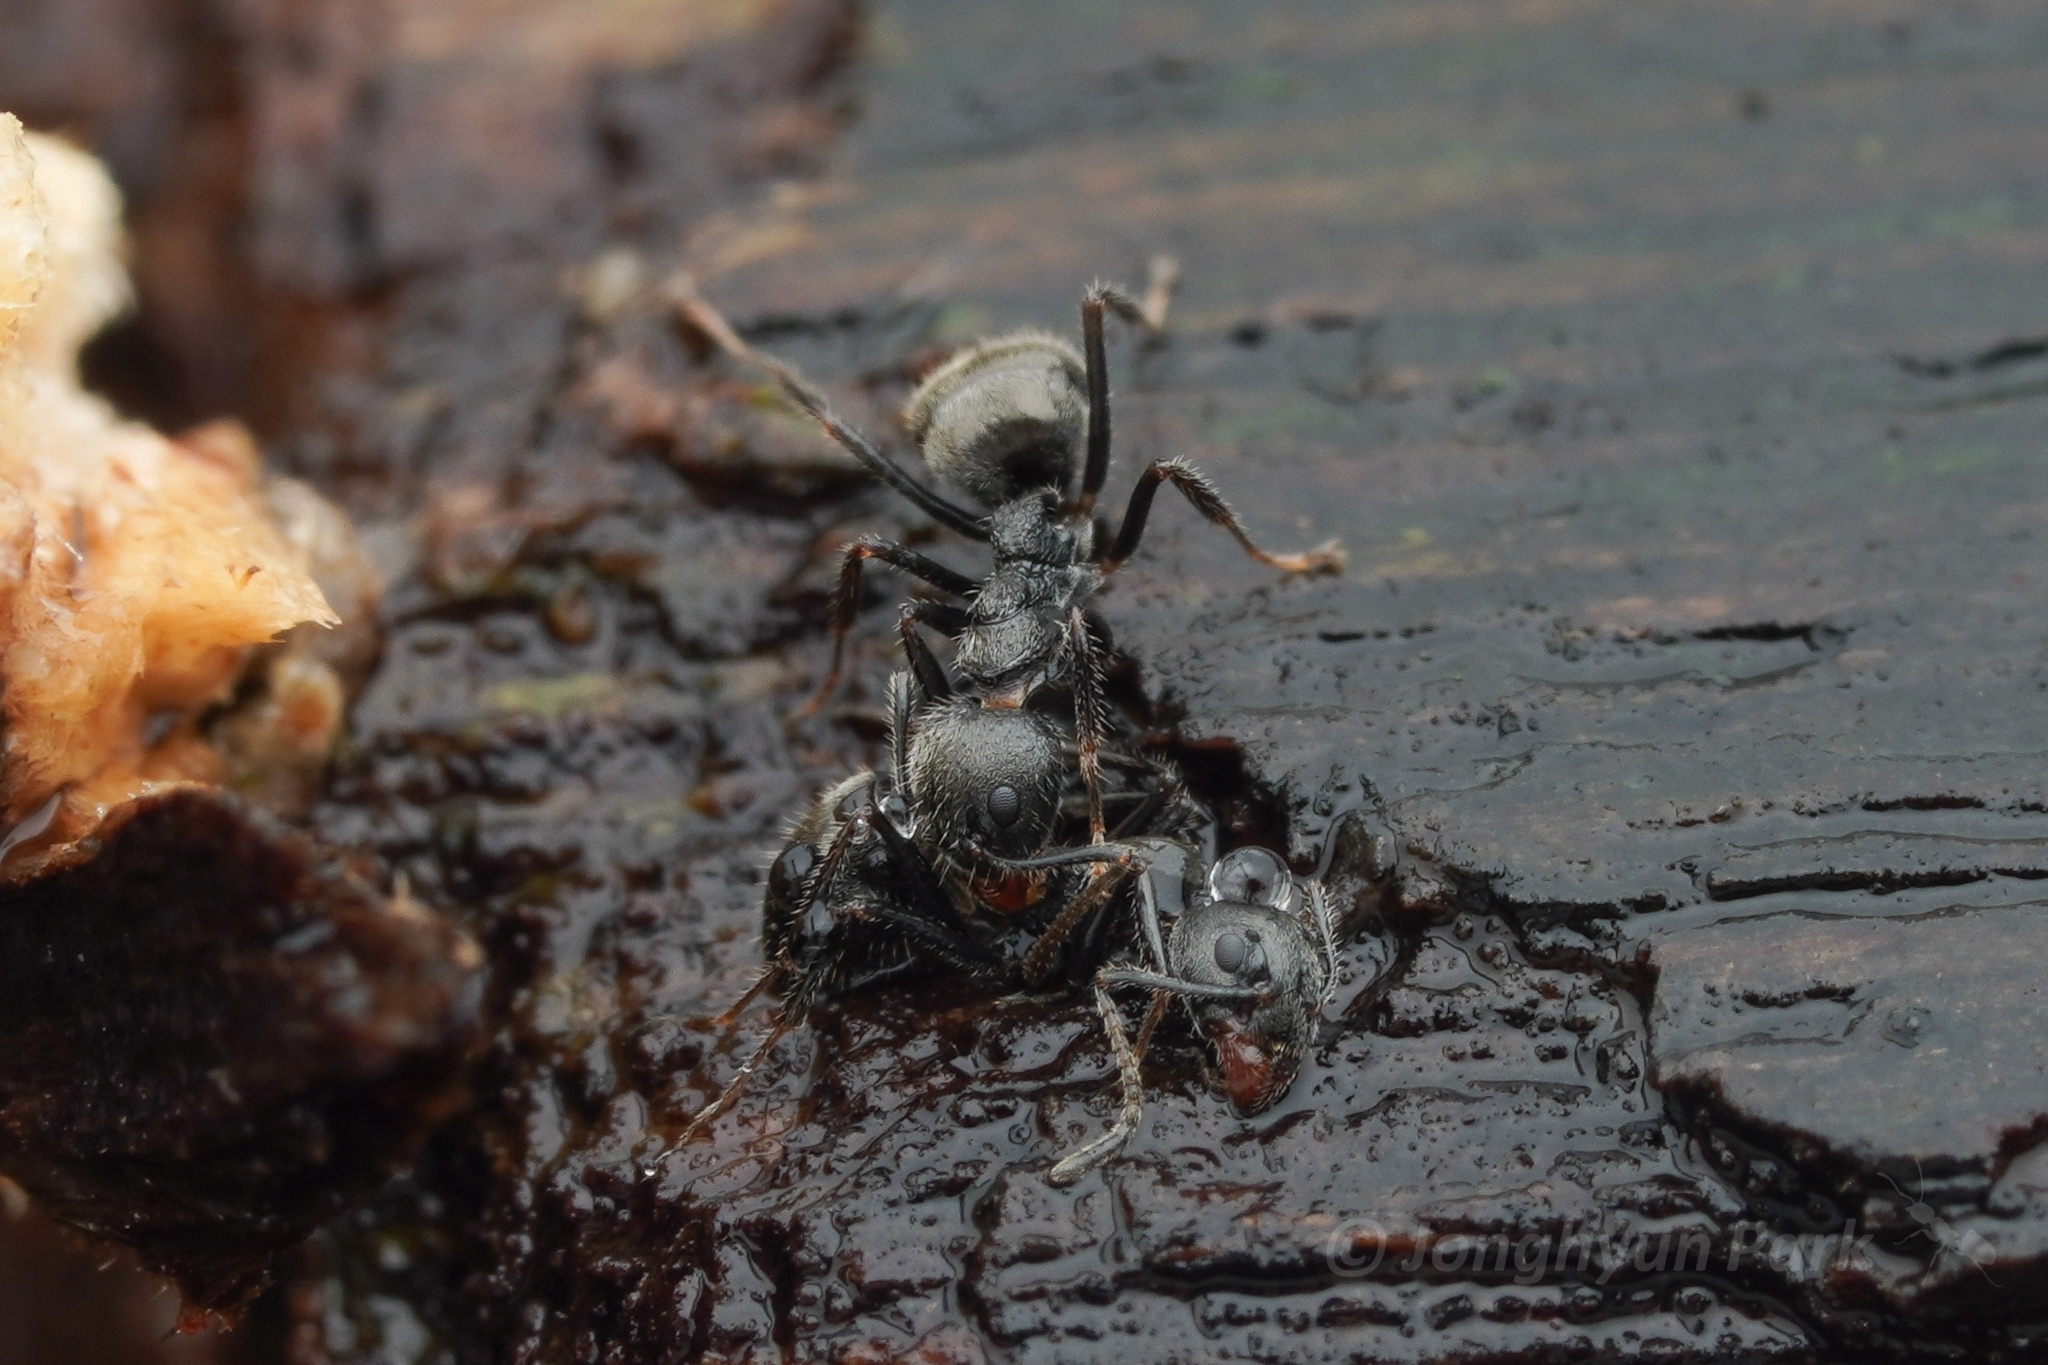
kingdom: Animalia
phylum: Arthropoda
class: Insecta
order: Hymenoptera
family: Formicidae
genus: Dolichoderus
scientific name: Dolichoderus thoracicus
